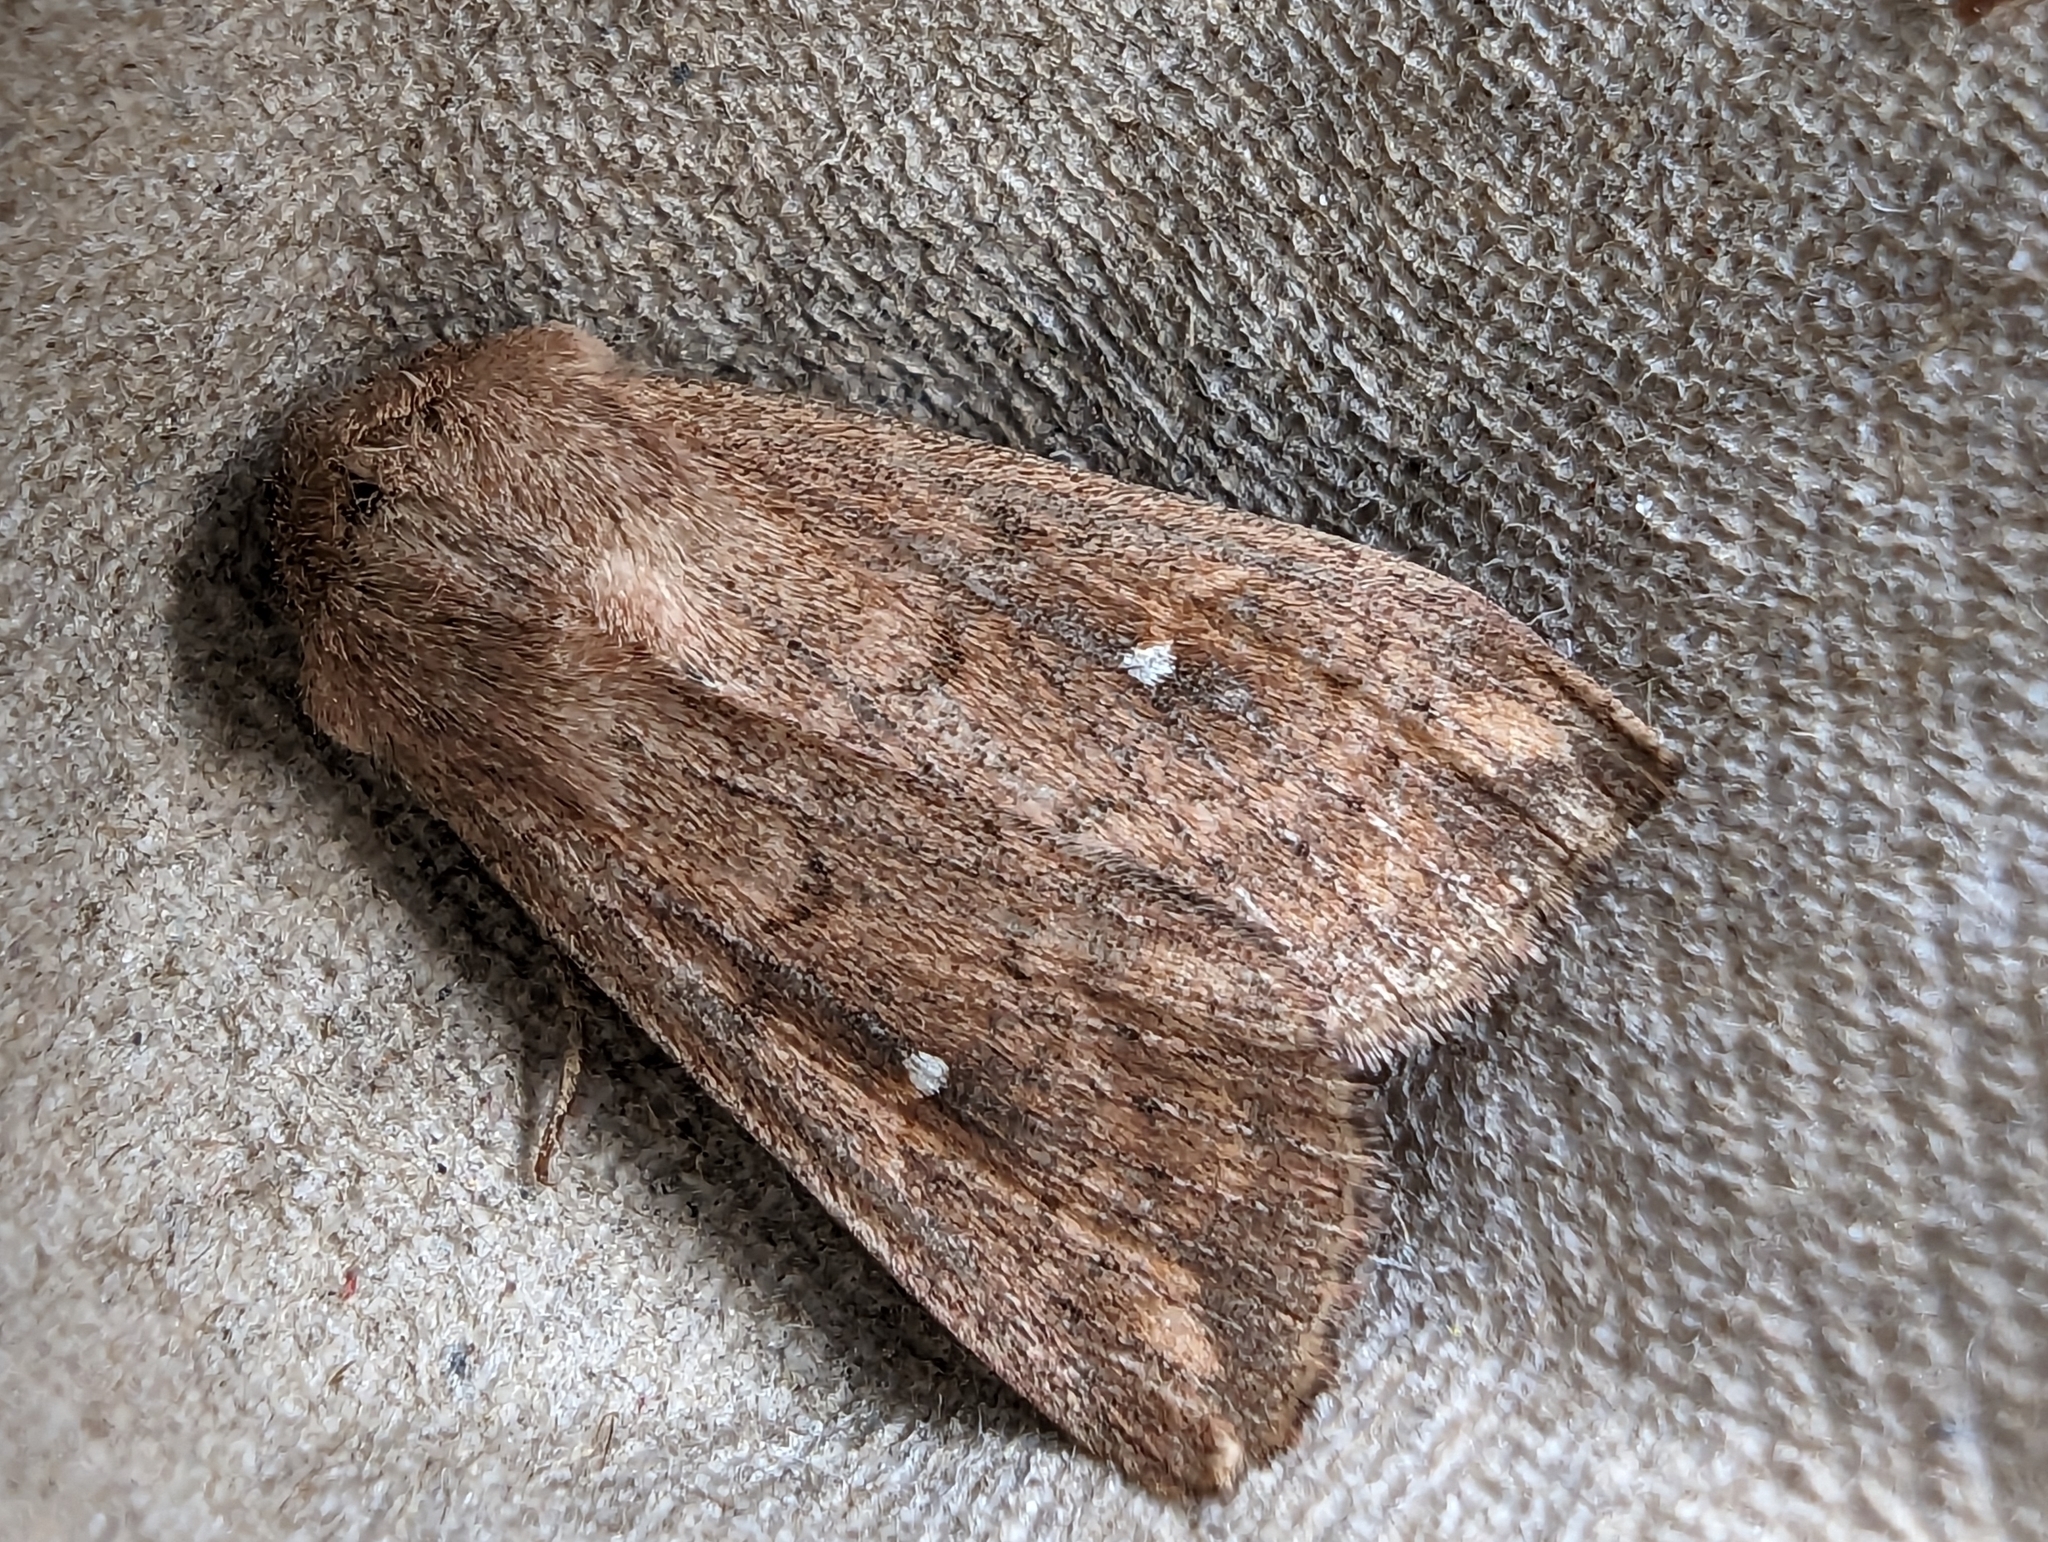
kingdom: Animalia
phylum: Arthropoda
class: Insecta
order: Lepidoptera
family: Noctuidae
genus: Mythimna
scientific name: Mythimna albipuncta
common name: White-point
